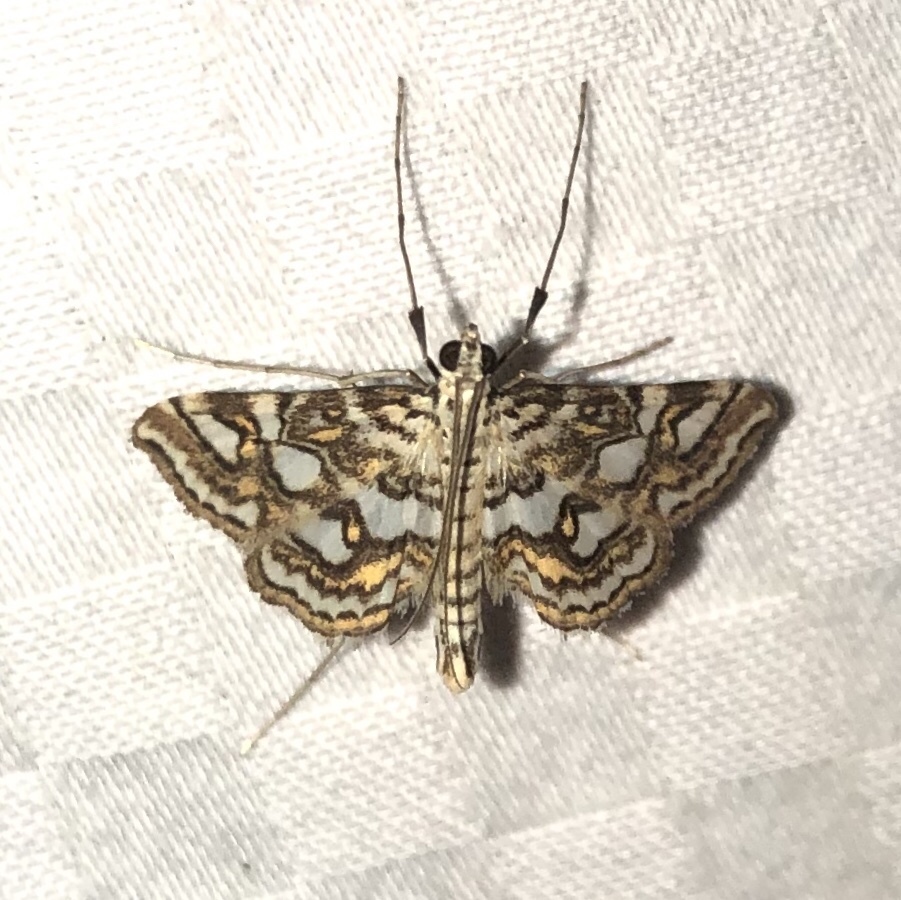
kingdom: Animalia
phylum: Arthropoda
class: Insecta
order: Lepidoptera
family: Crambidae
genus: Elophila
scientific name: Elophila ekthlipsis
